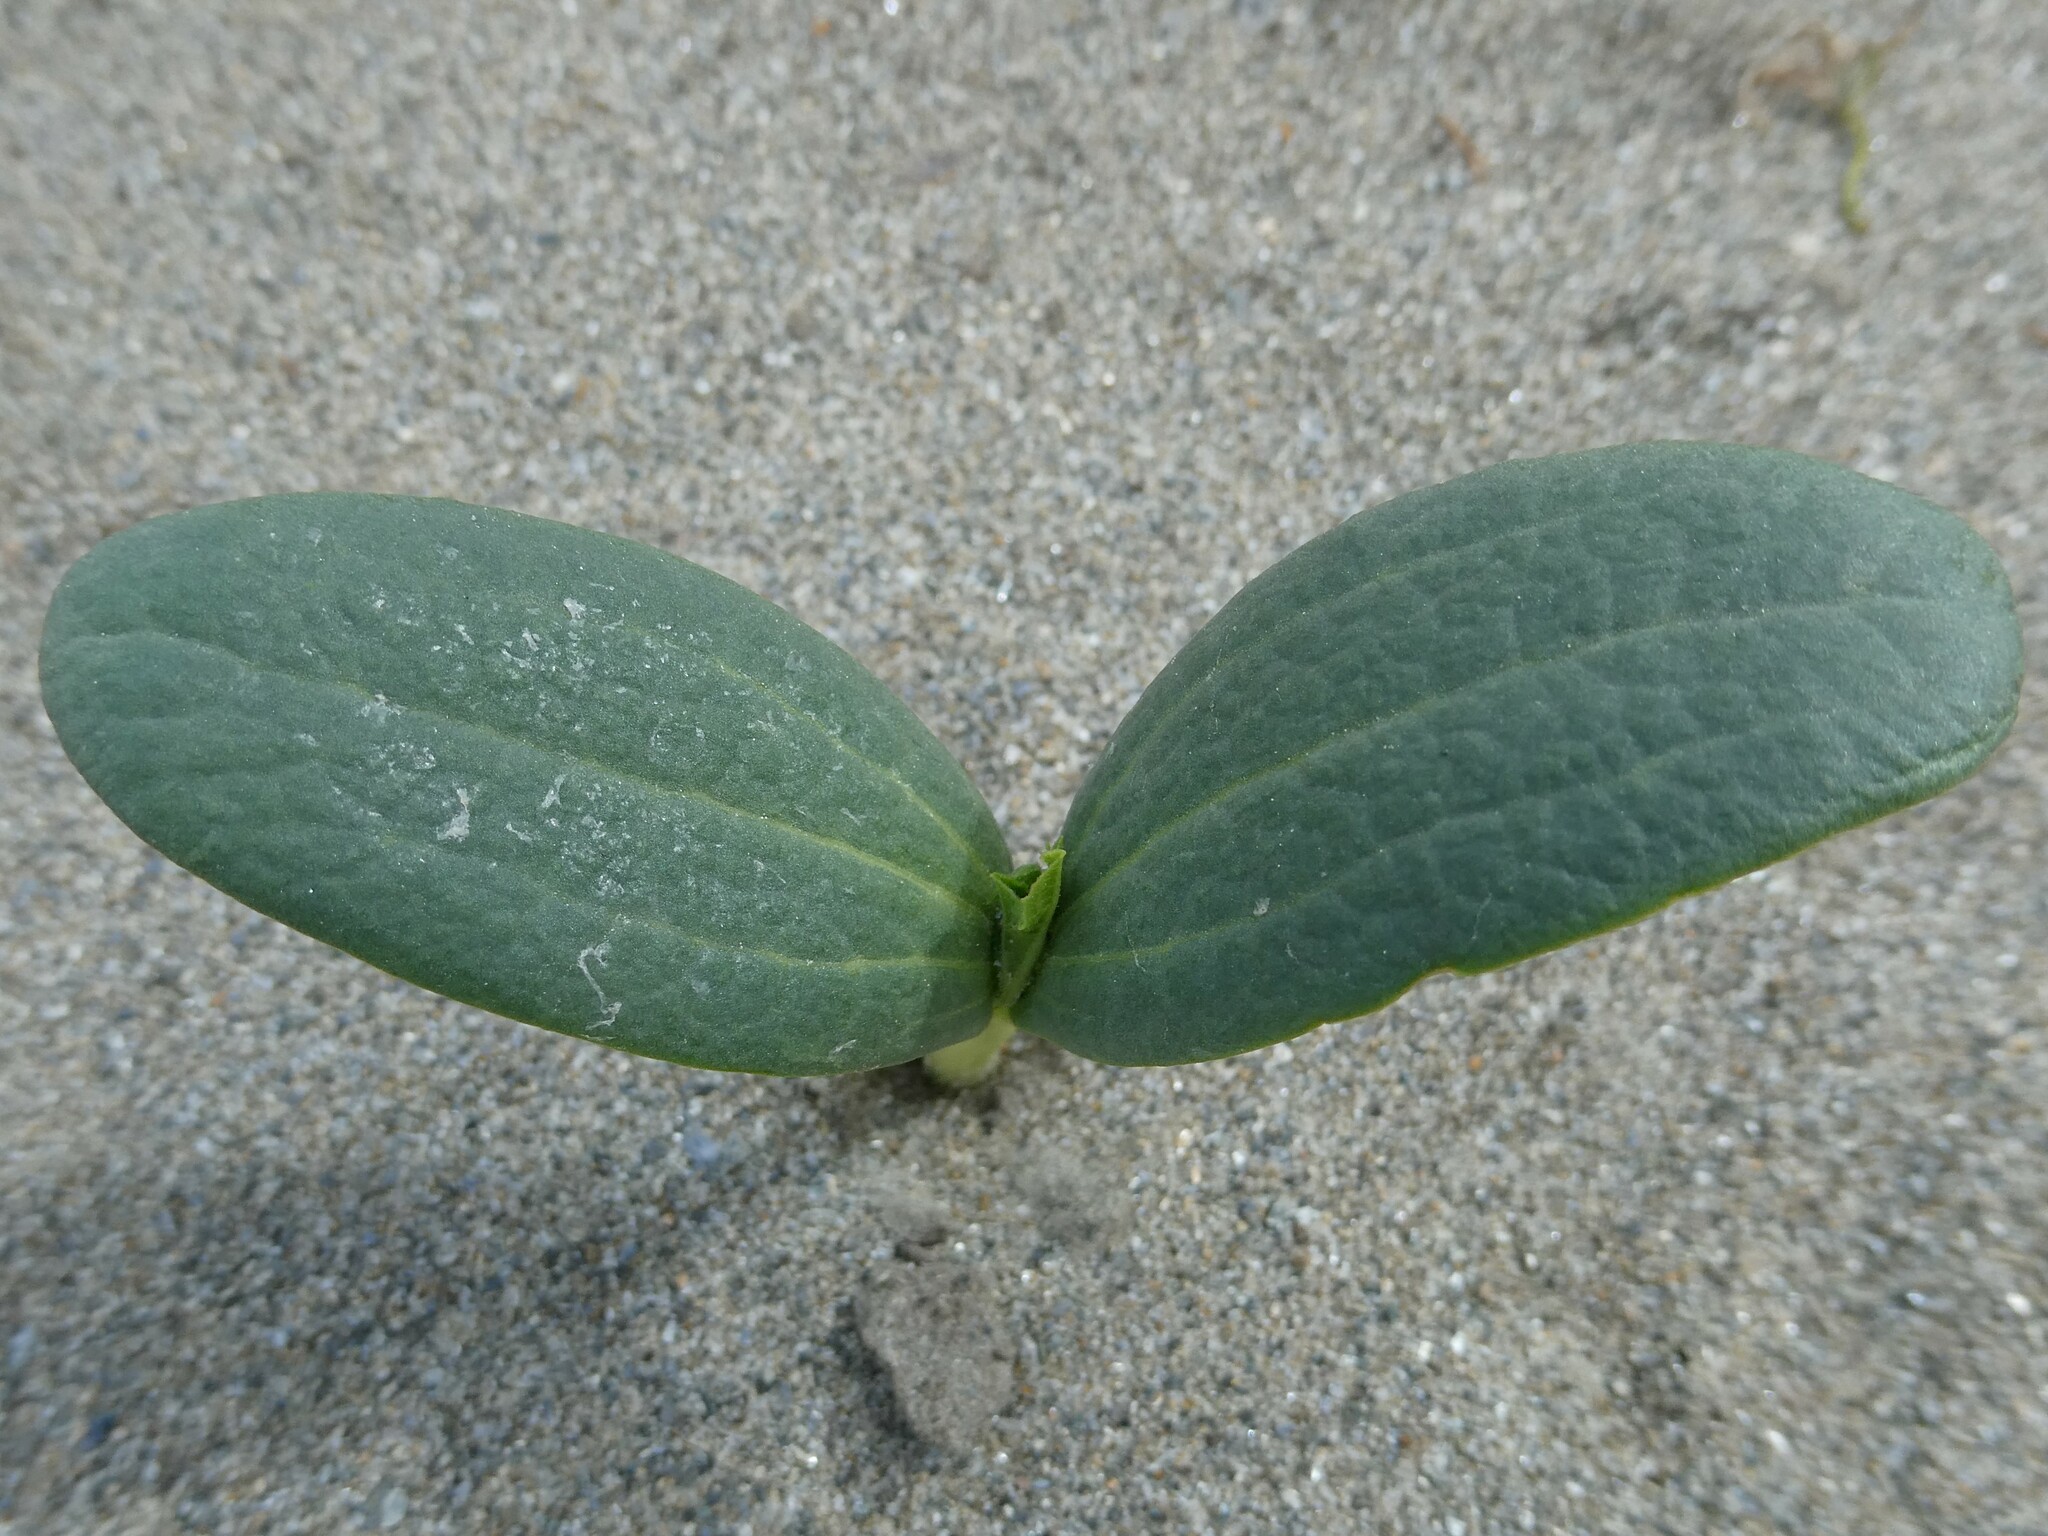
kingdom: Plantae
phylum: Tracheophyta
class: Magnoliopsida
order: Cucurbitales
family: Cucurbitaceae
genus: Echinocystis
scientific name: Echinocystis lobata
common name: Wild cucumber
